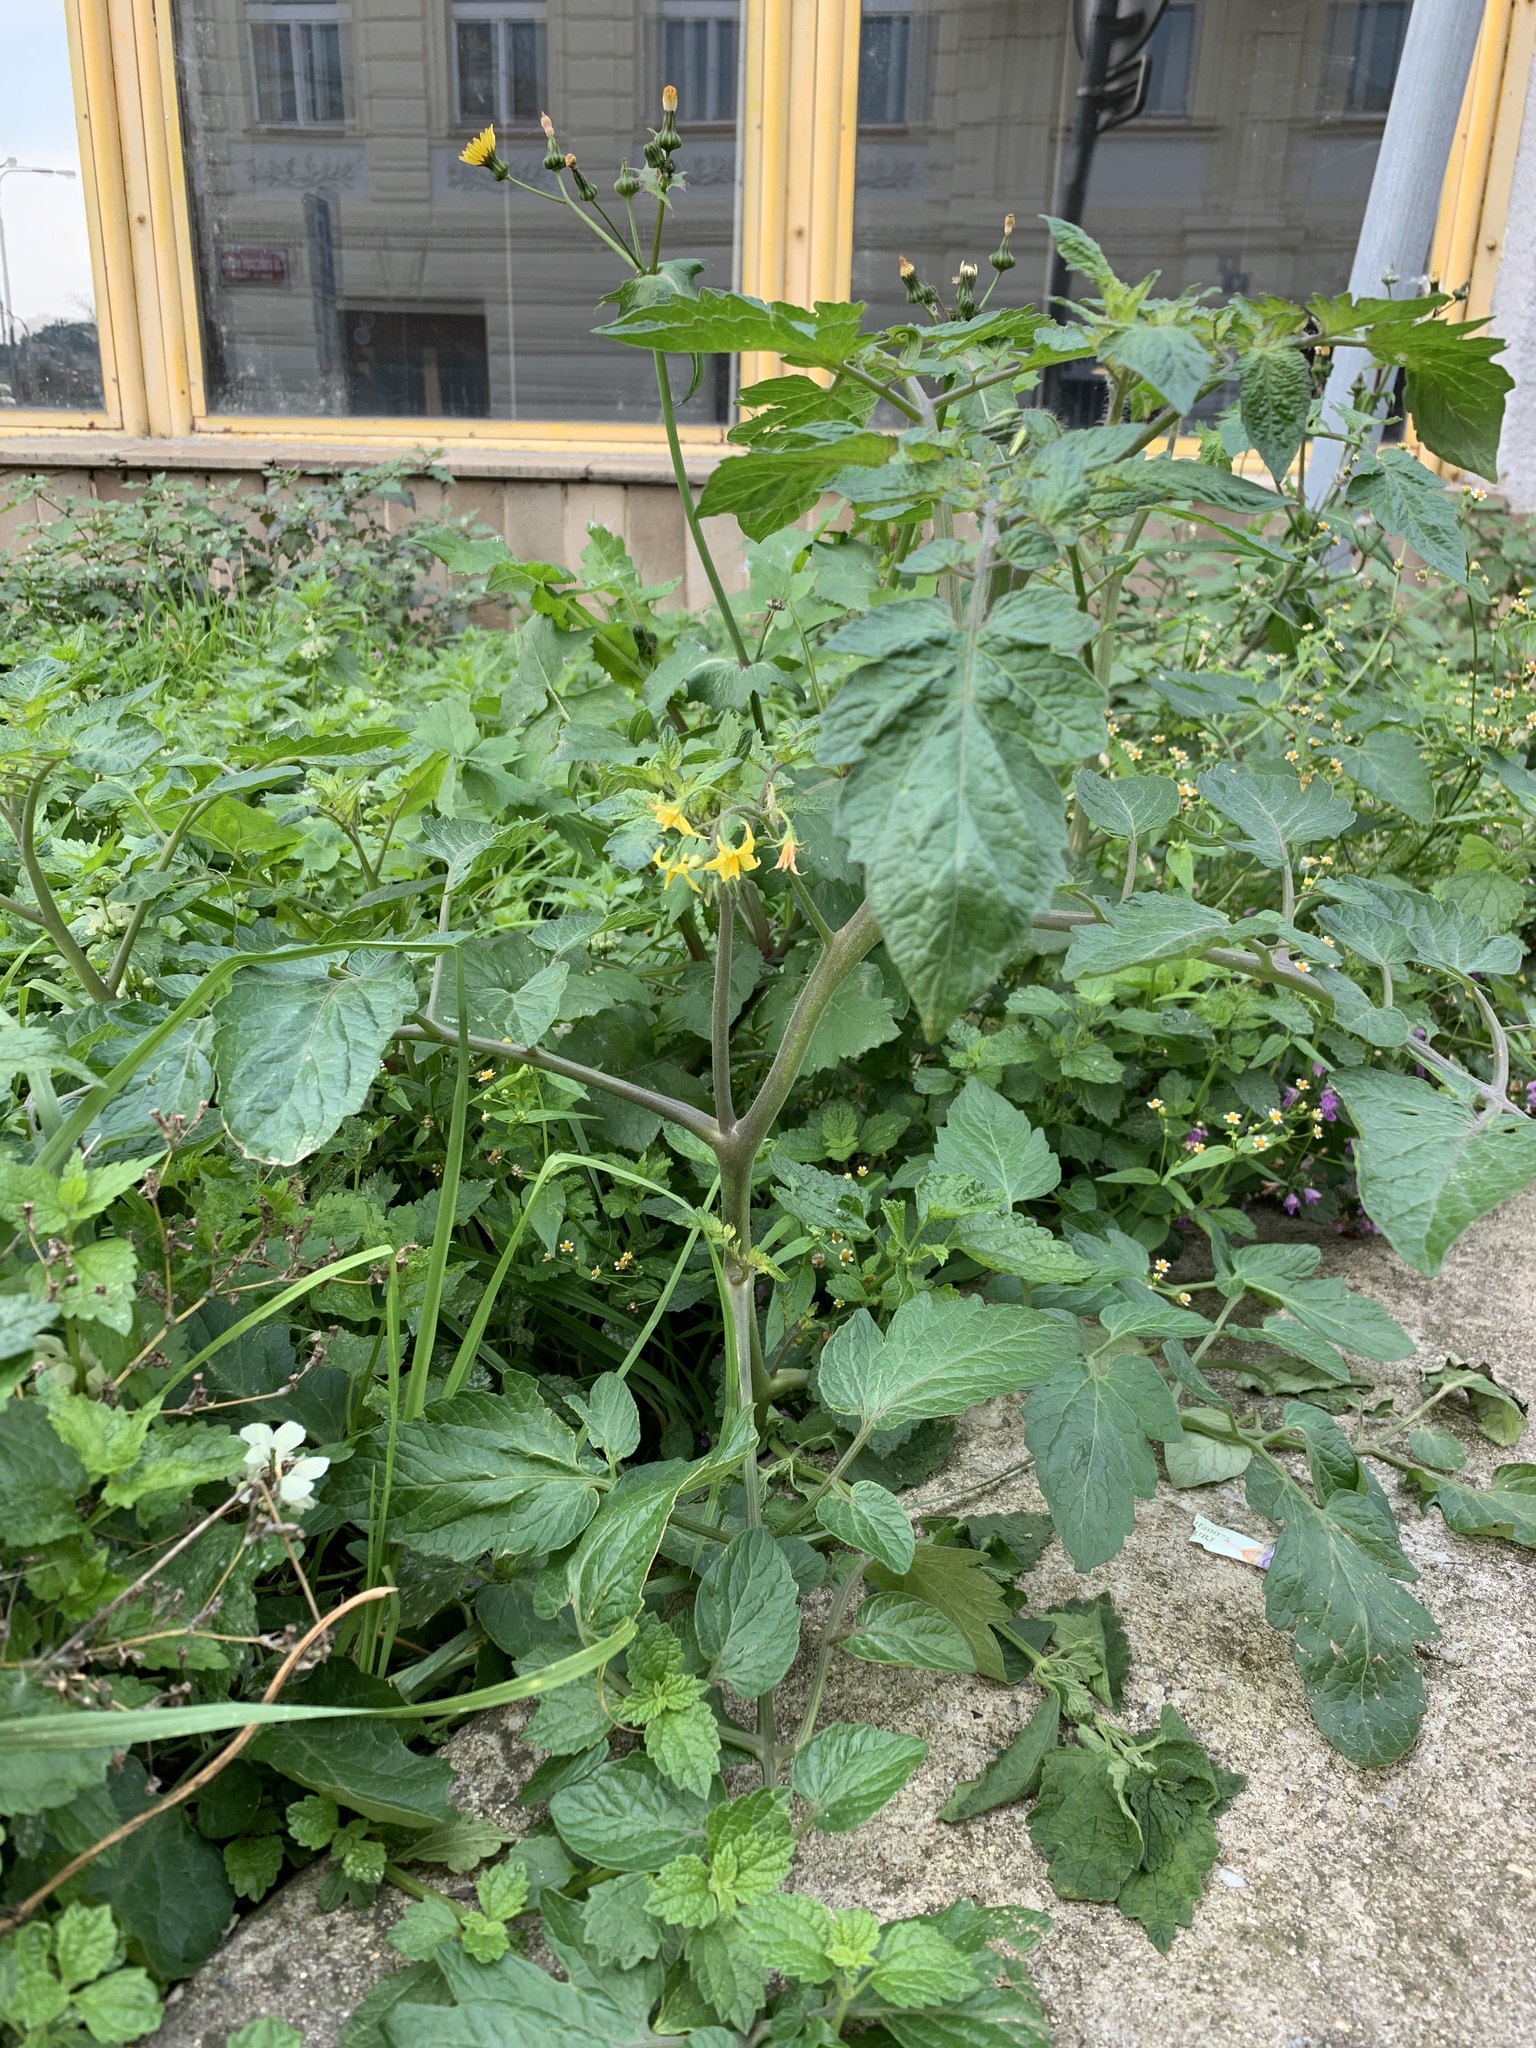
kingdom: Plantae
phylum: Tracheophyta
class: Magnoliopsida
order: Solanales
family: Solanaceae
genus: Solanum
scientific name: Solanum lycopersicum
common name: Garden tomato
